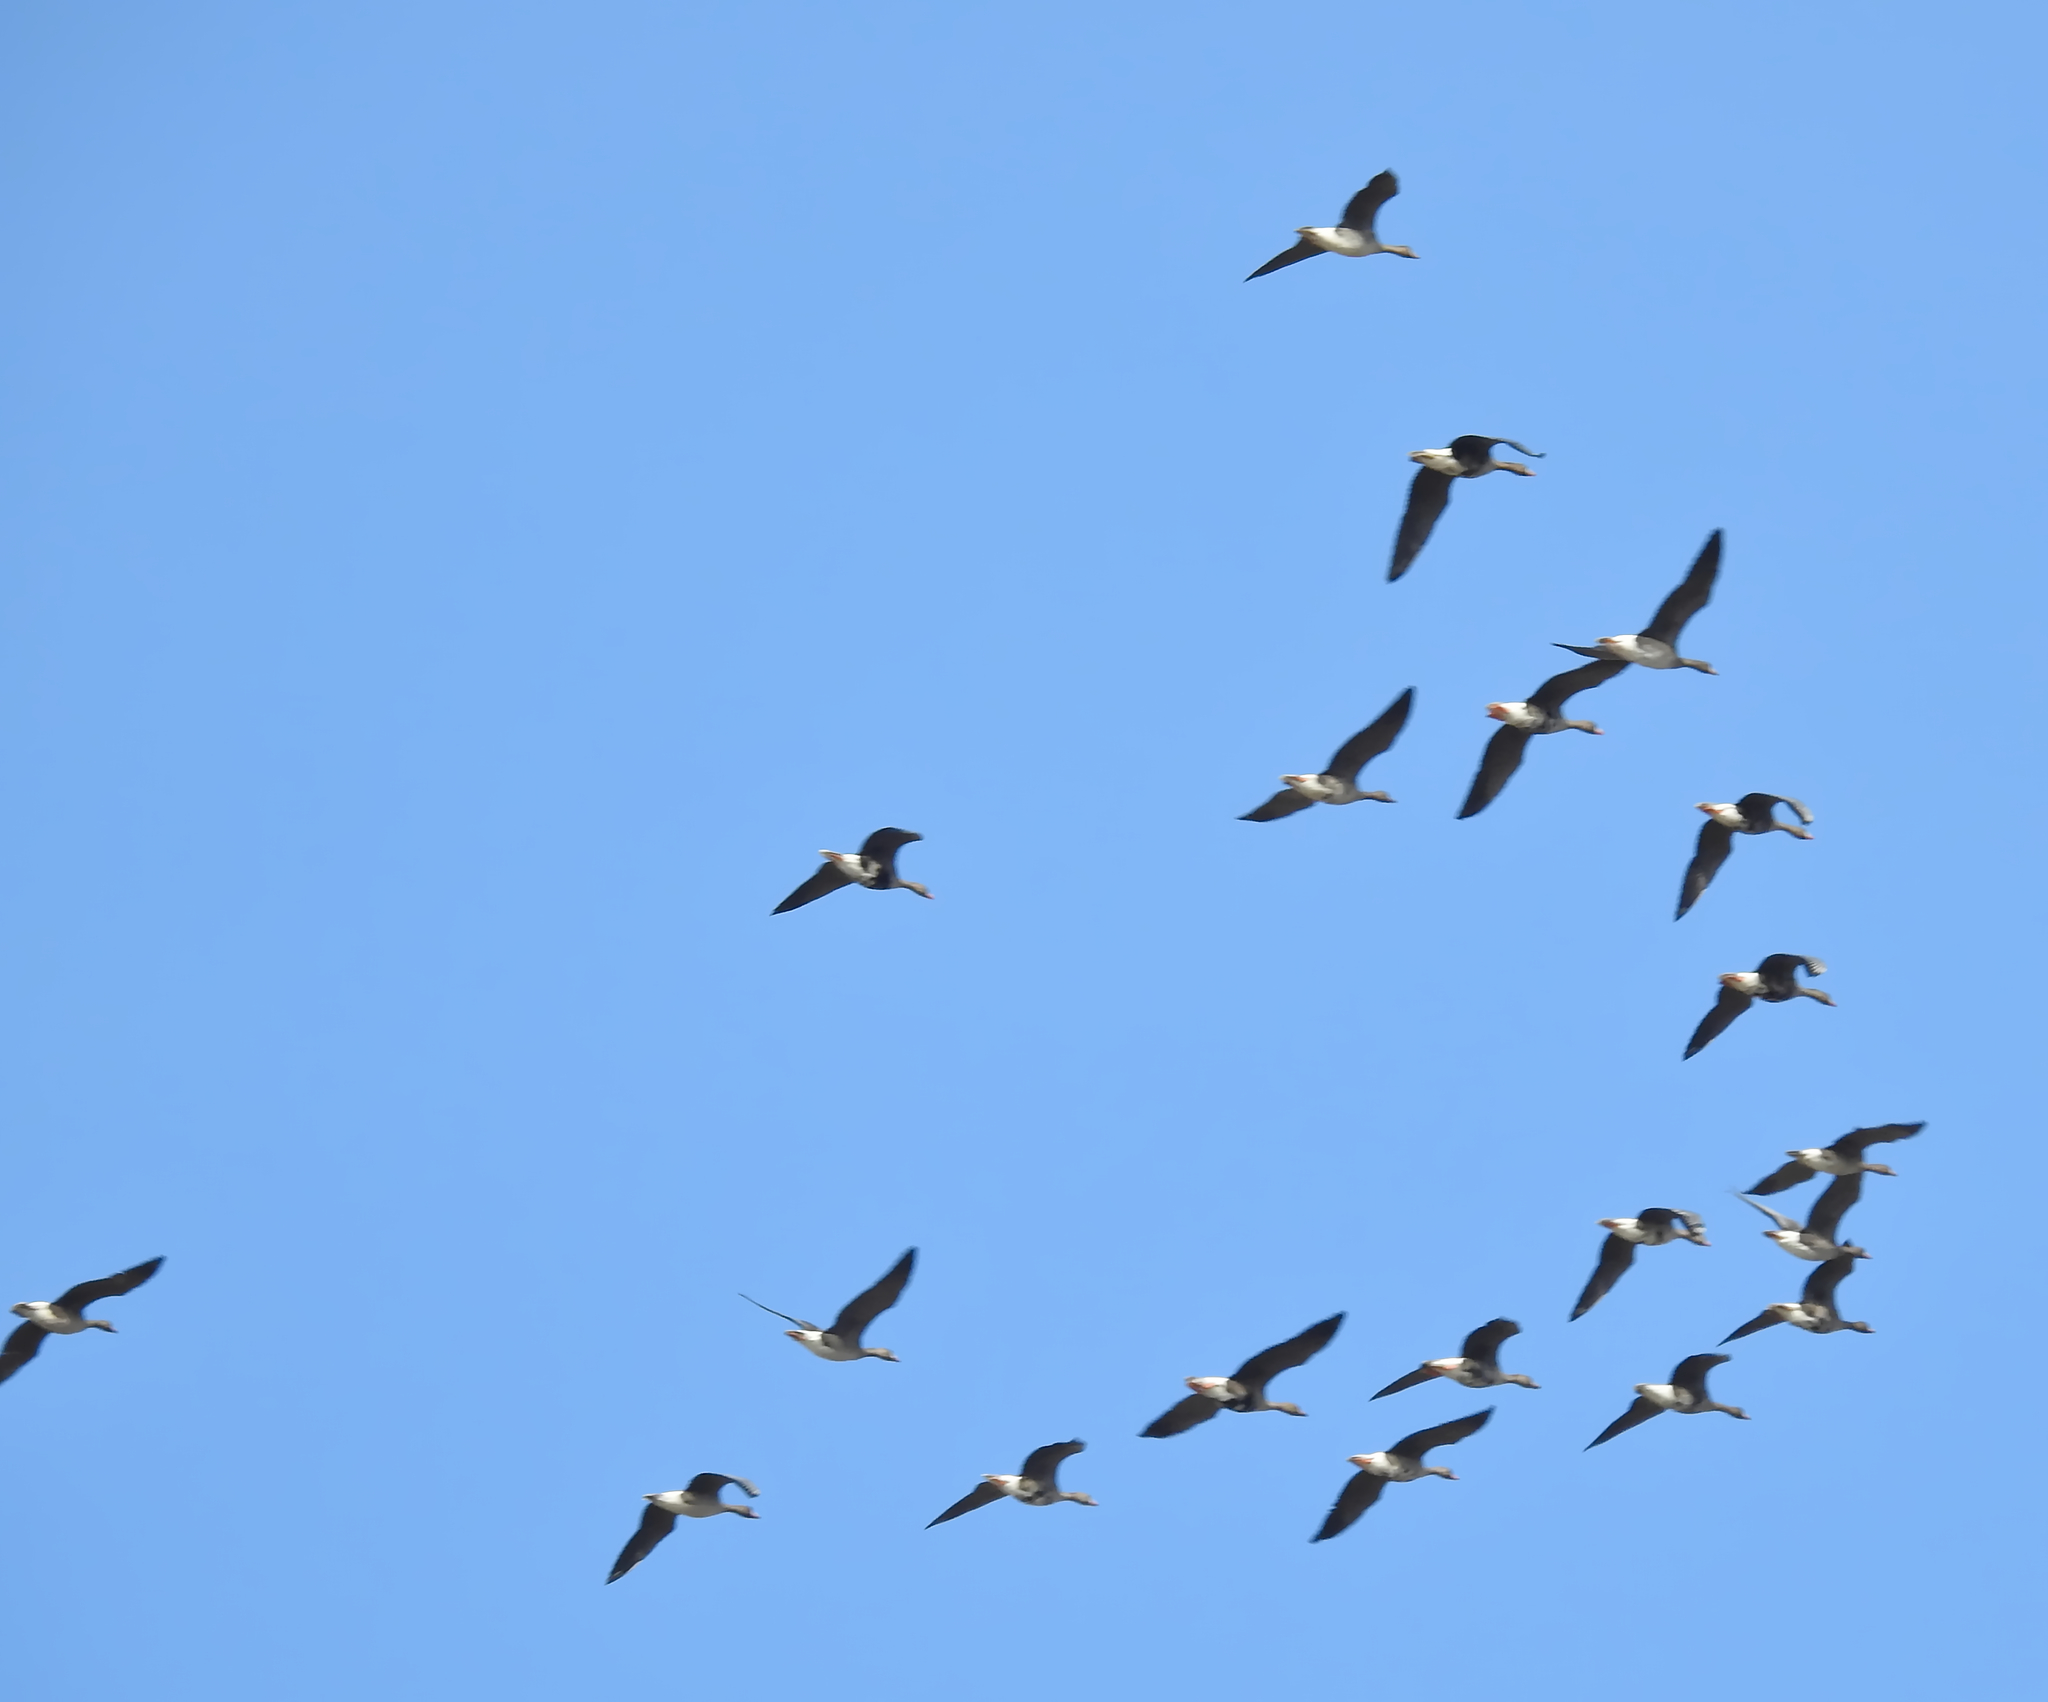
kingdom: Animalia
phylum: Chordata
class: Aves
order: Anseriformes
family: Anatidae
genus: Anser
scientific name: Anser albifrons
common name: Greater white-fronted goose
